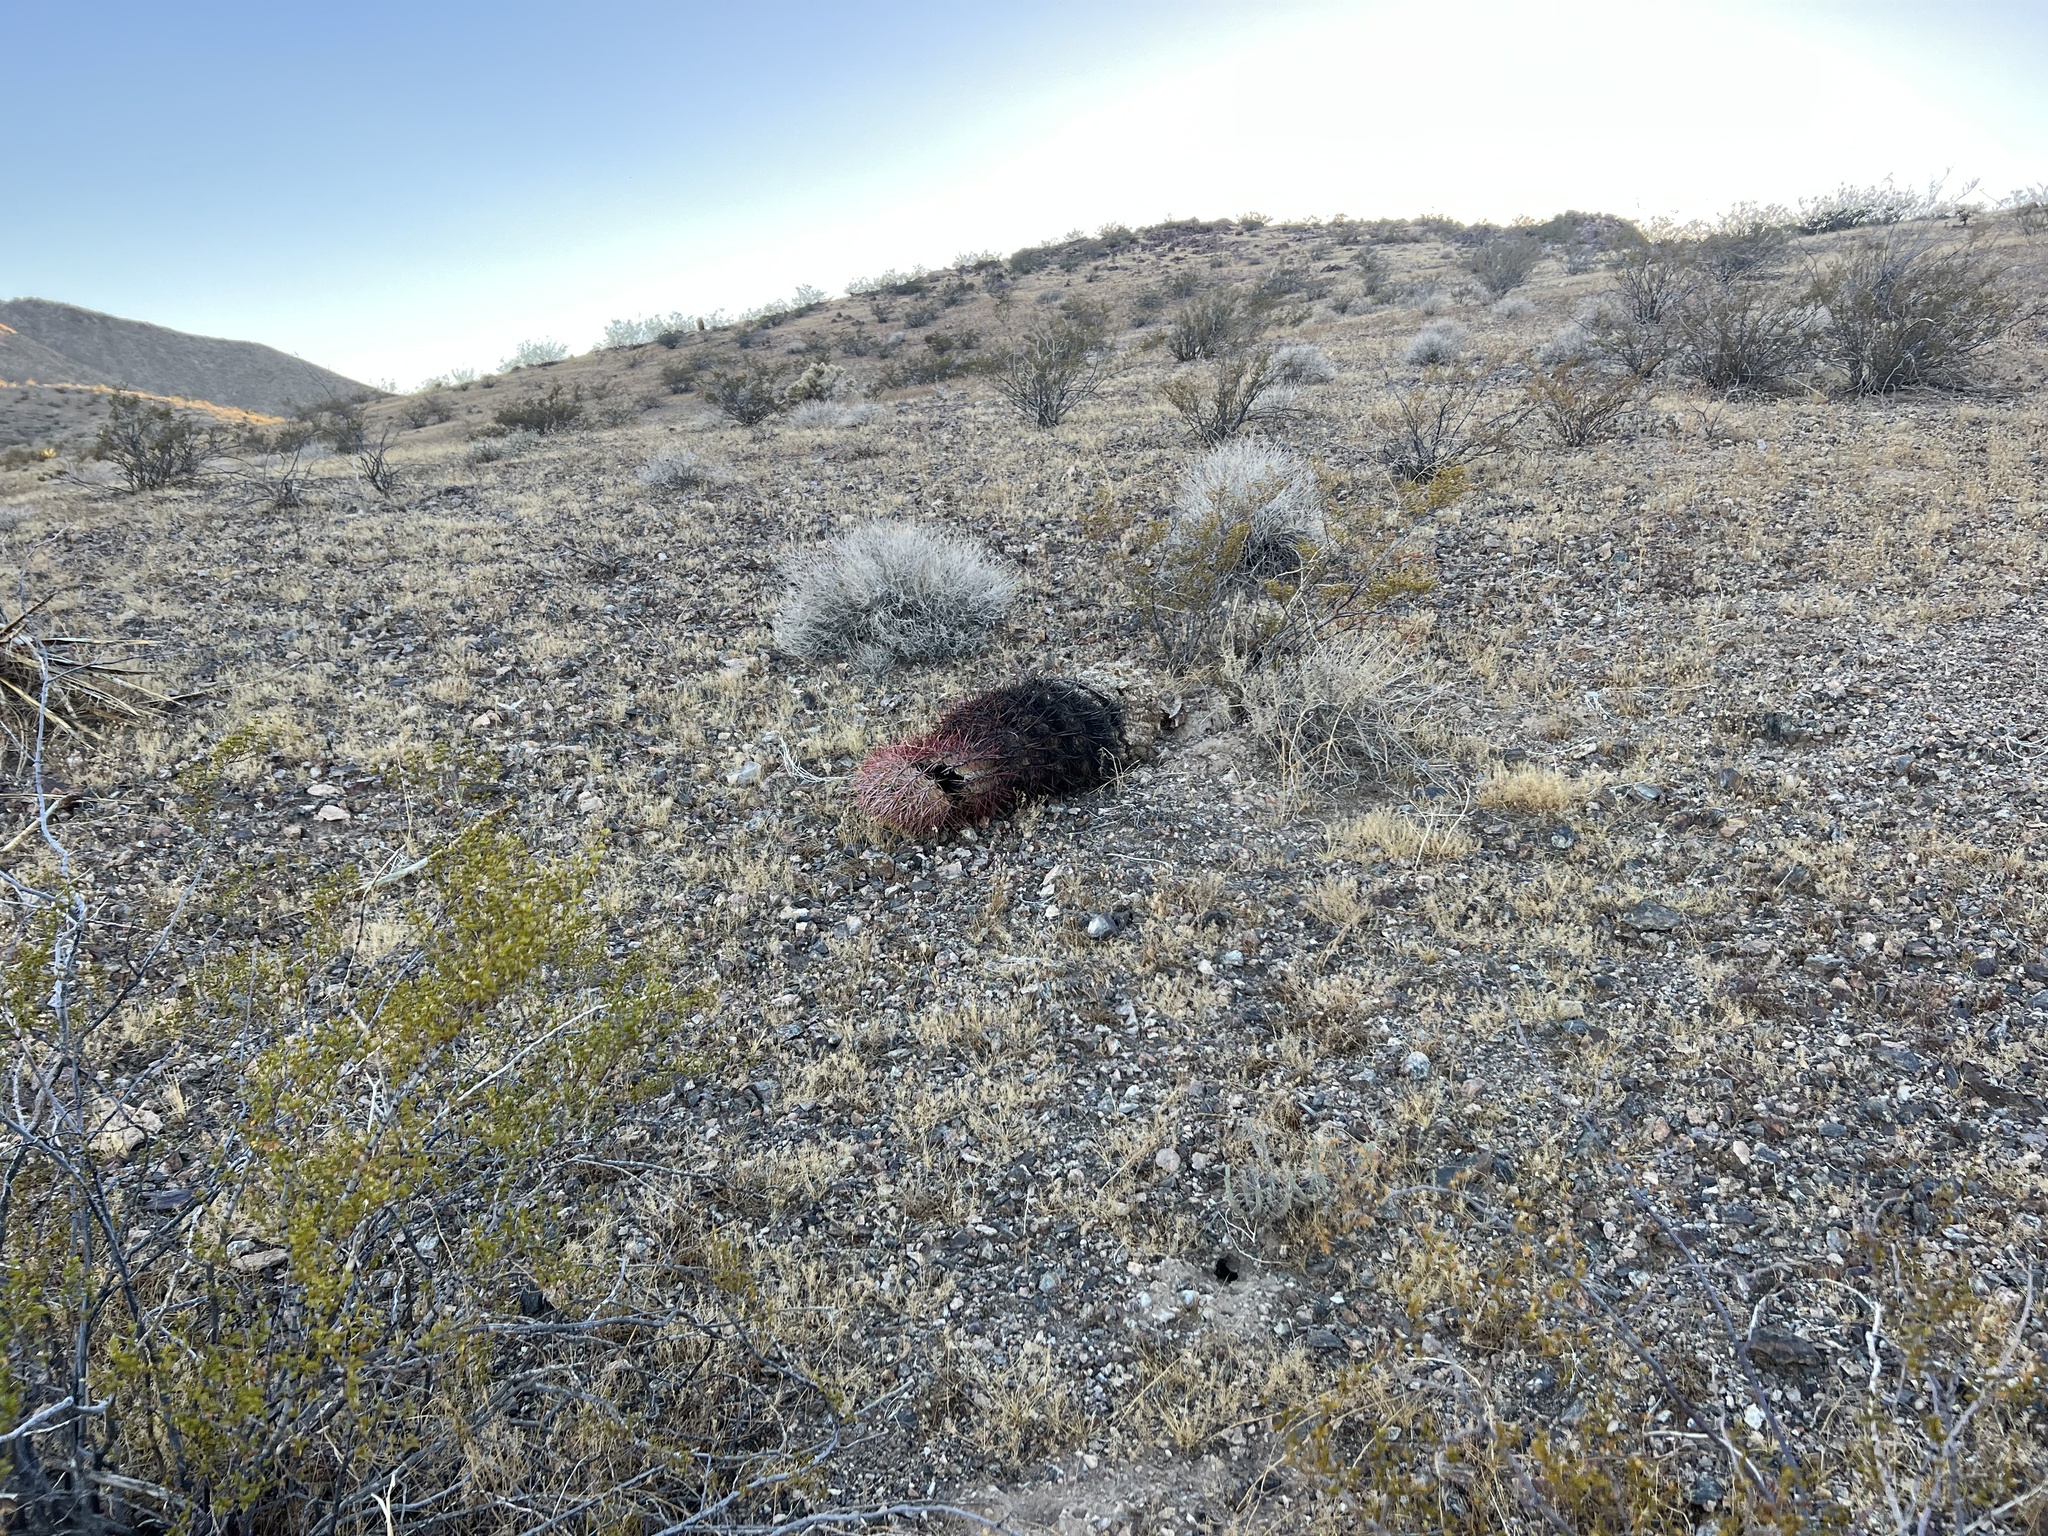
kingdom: Plantae
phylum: Tracheophyta
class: Magnoliopsida
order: Caryophyllales
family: Cactaceae
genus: Ferocactus
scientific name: Ferocactus cylindraceus
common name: California barrel cactus
